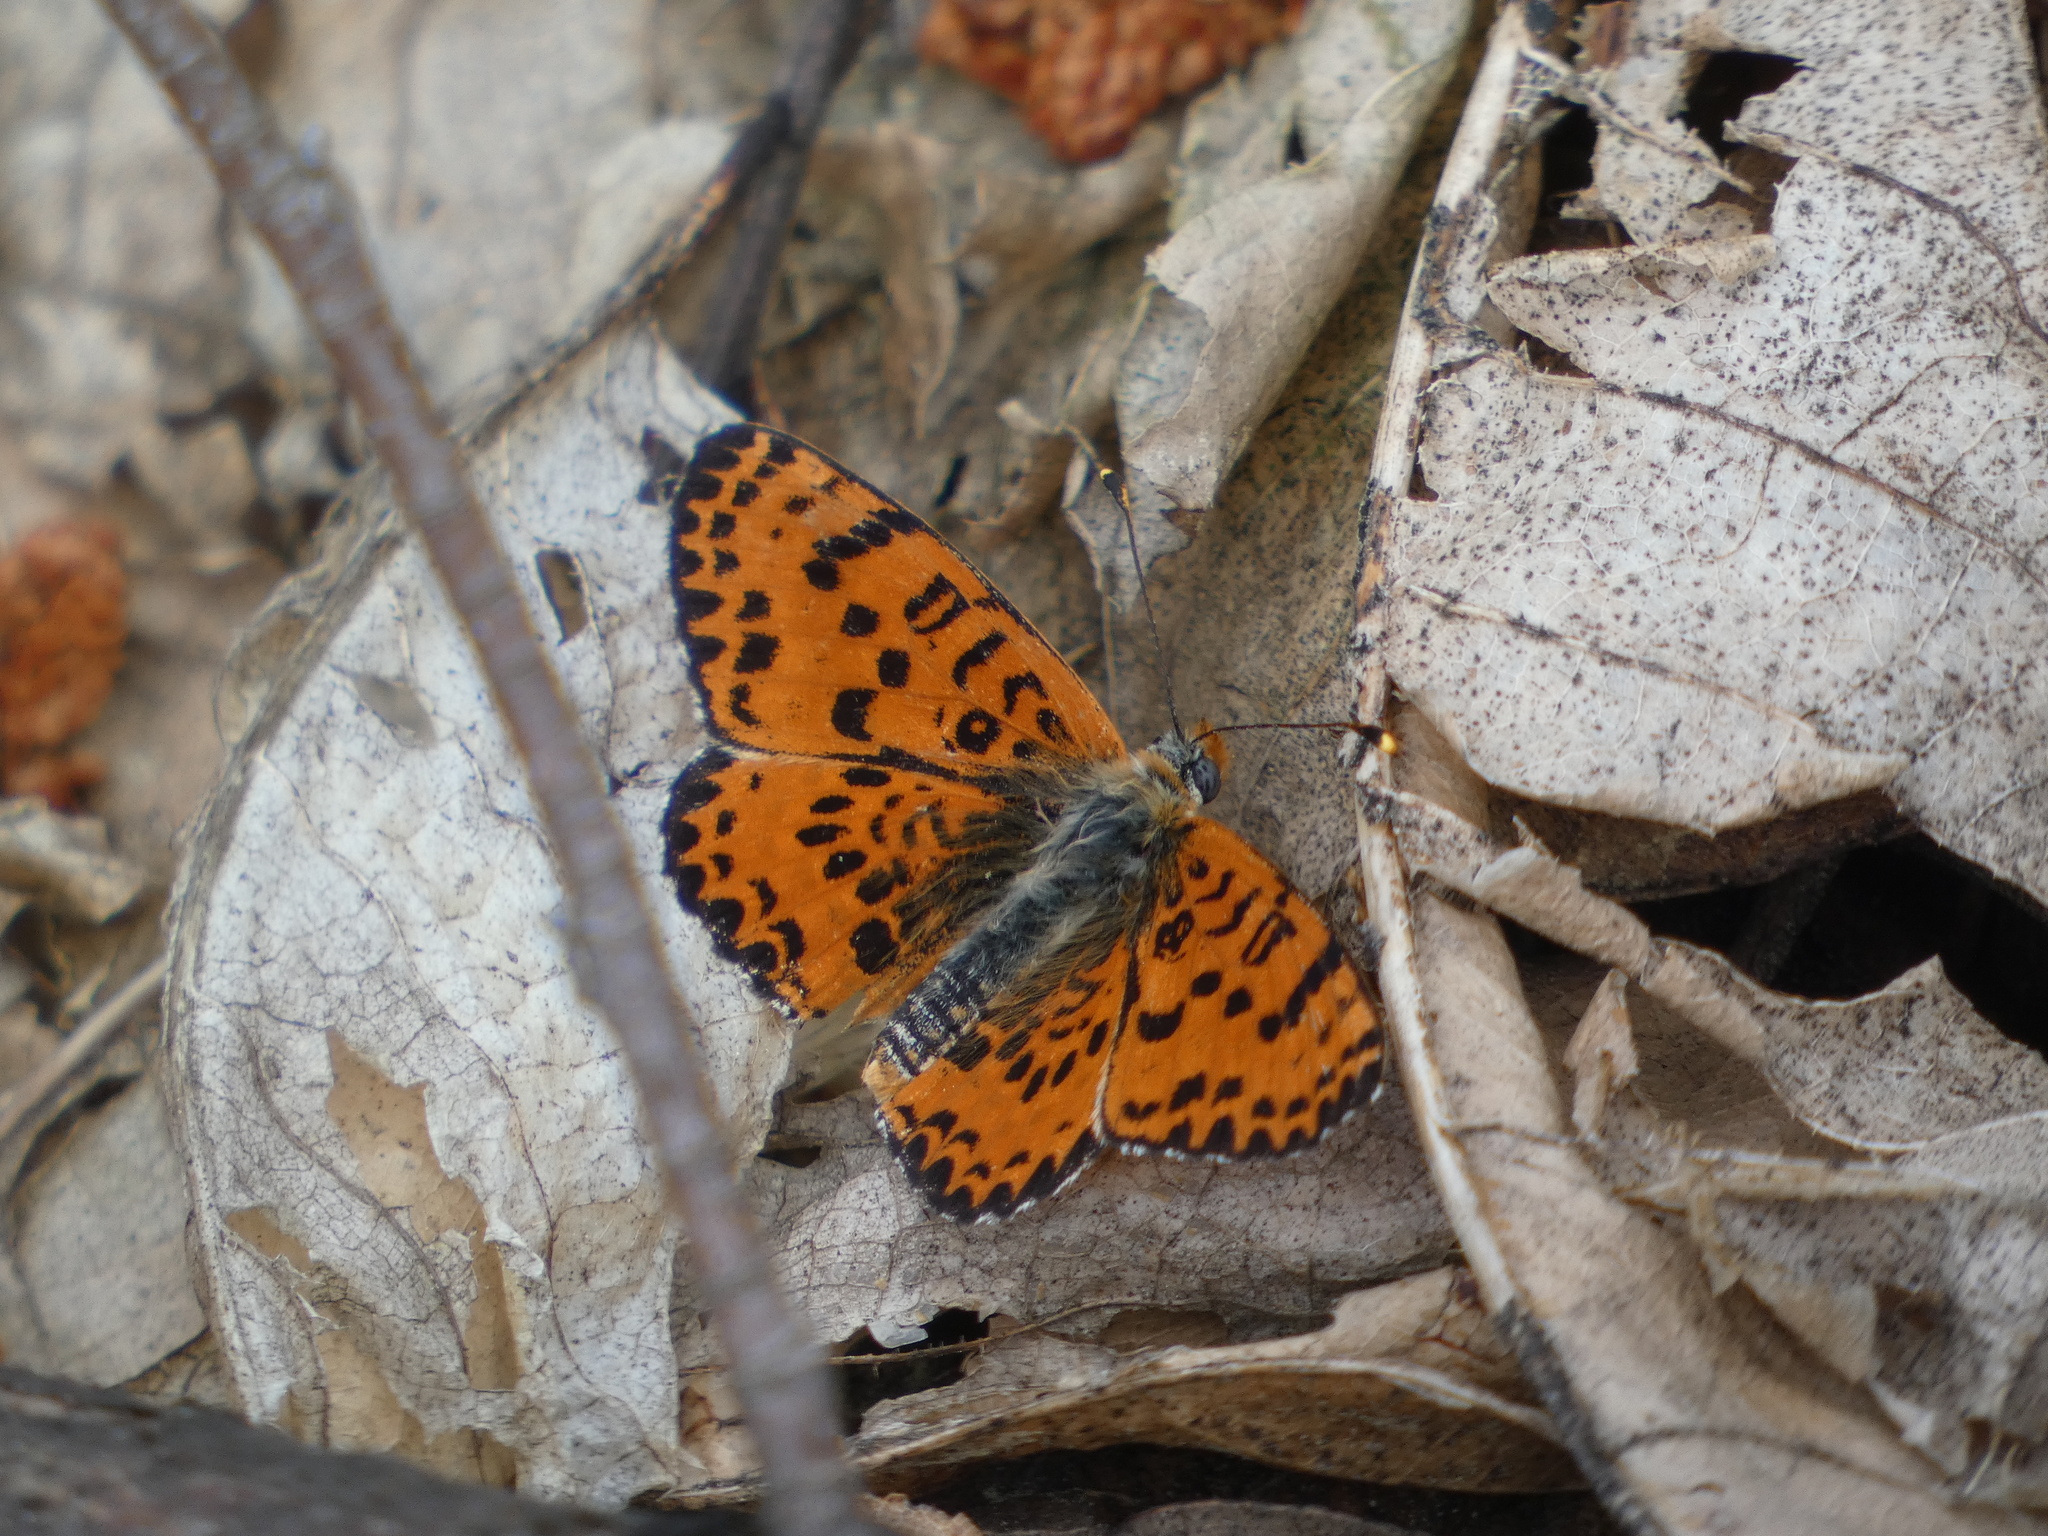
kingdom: Animalia
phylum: Arthropoda
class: Insecta
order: Lepidoptera
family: Nymphalidae
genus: Melitaea
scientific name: Melitaea didyma
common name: Spotted fritillary
